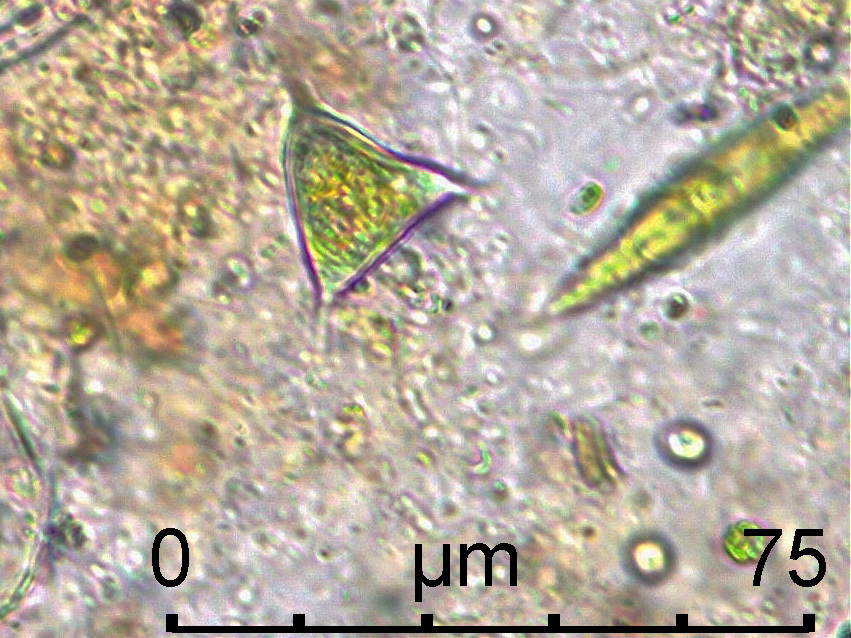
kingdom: Plantae
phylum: Chlorophyta
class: Chlorophyceae
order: Sphaeropleales
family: Hydrodictyaceae
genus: Tetraedron
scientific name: Tetraedron regulare
